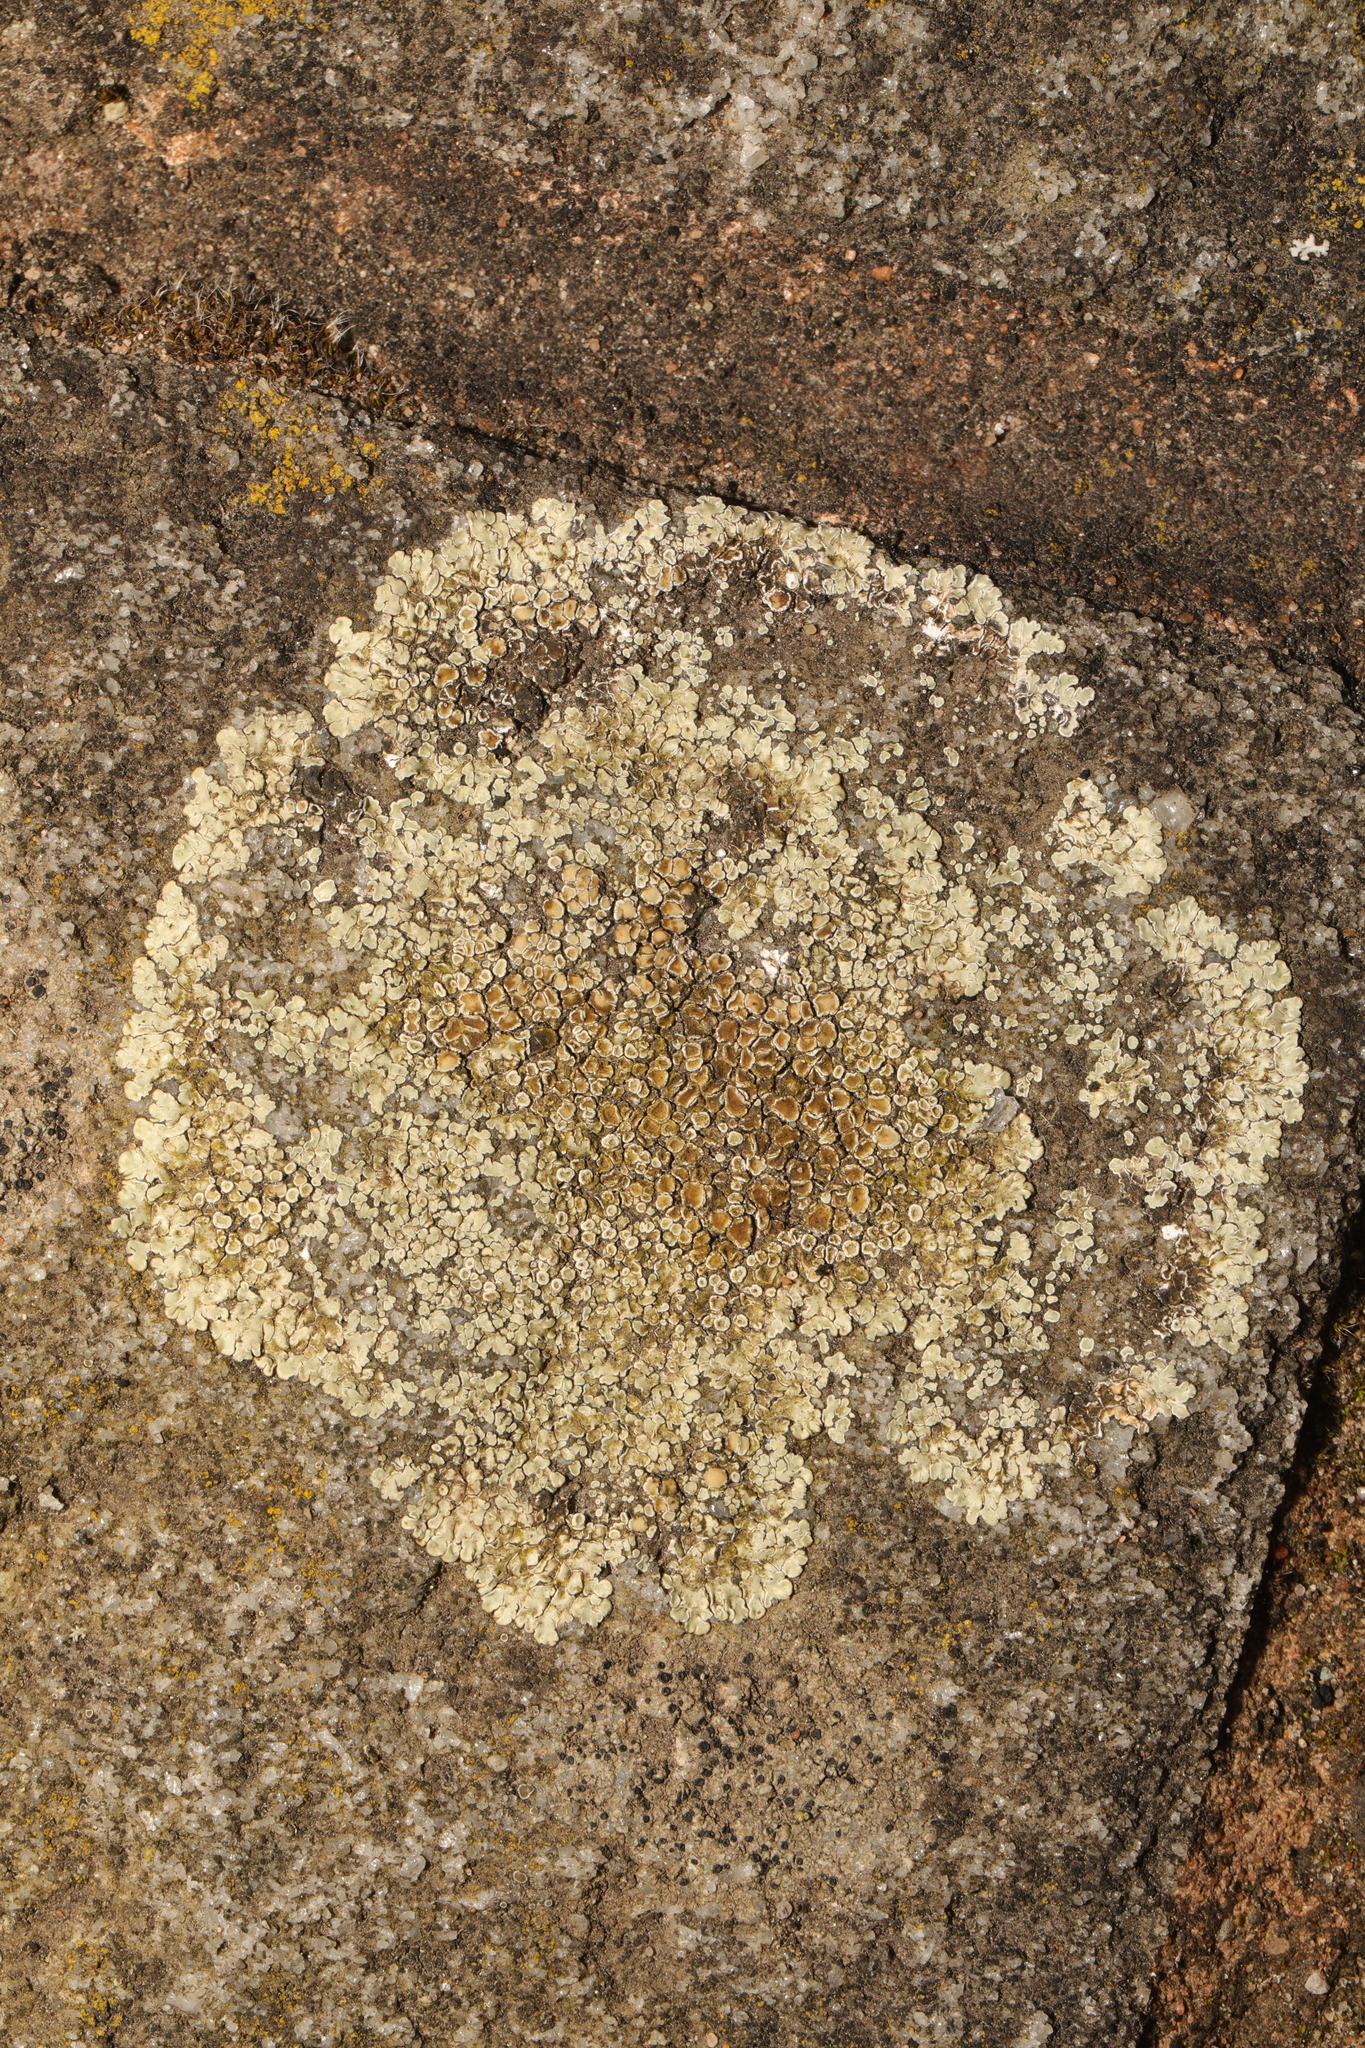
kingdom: Fungi
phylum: Ascomycota
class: Lecanoromycetes
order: Lecanorales
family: Lecanoraceae
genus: Protoparmeliopsis
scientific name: Protoparmeliopsis muralis
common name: Stonewall rim lichen
